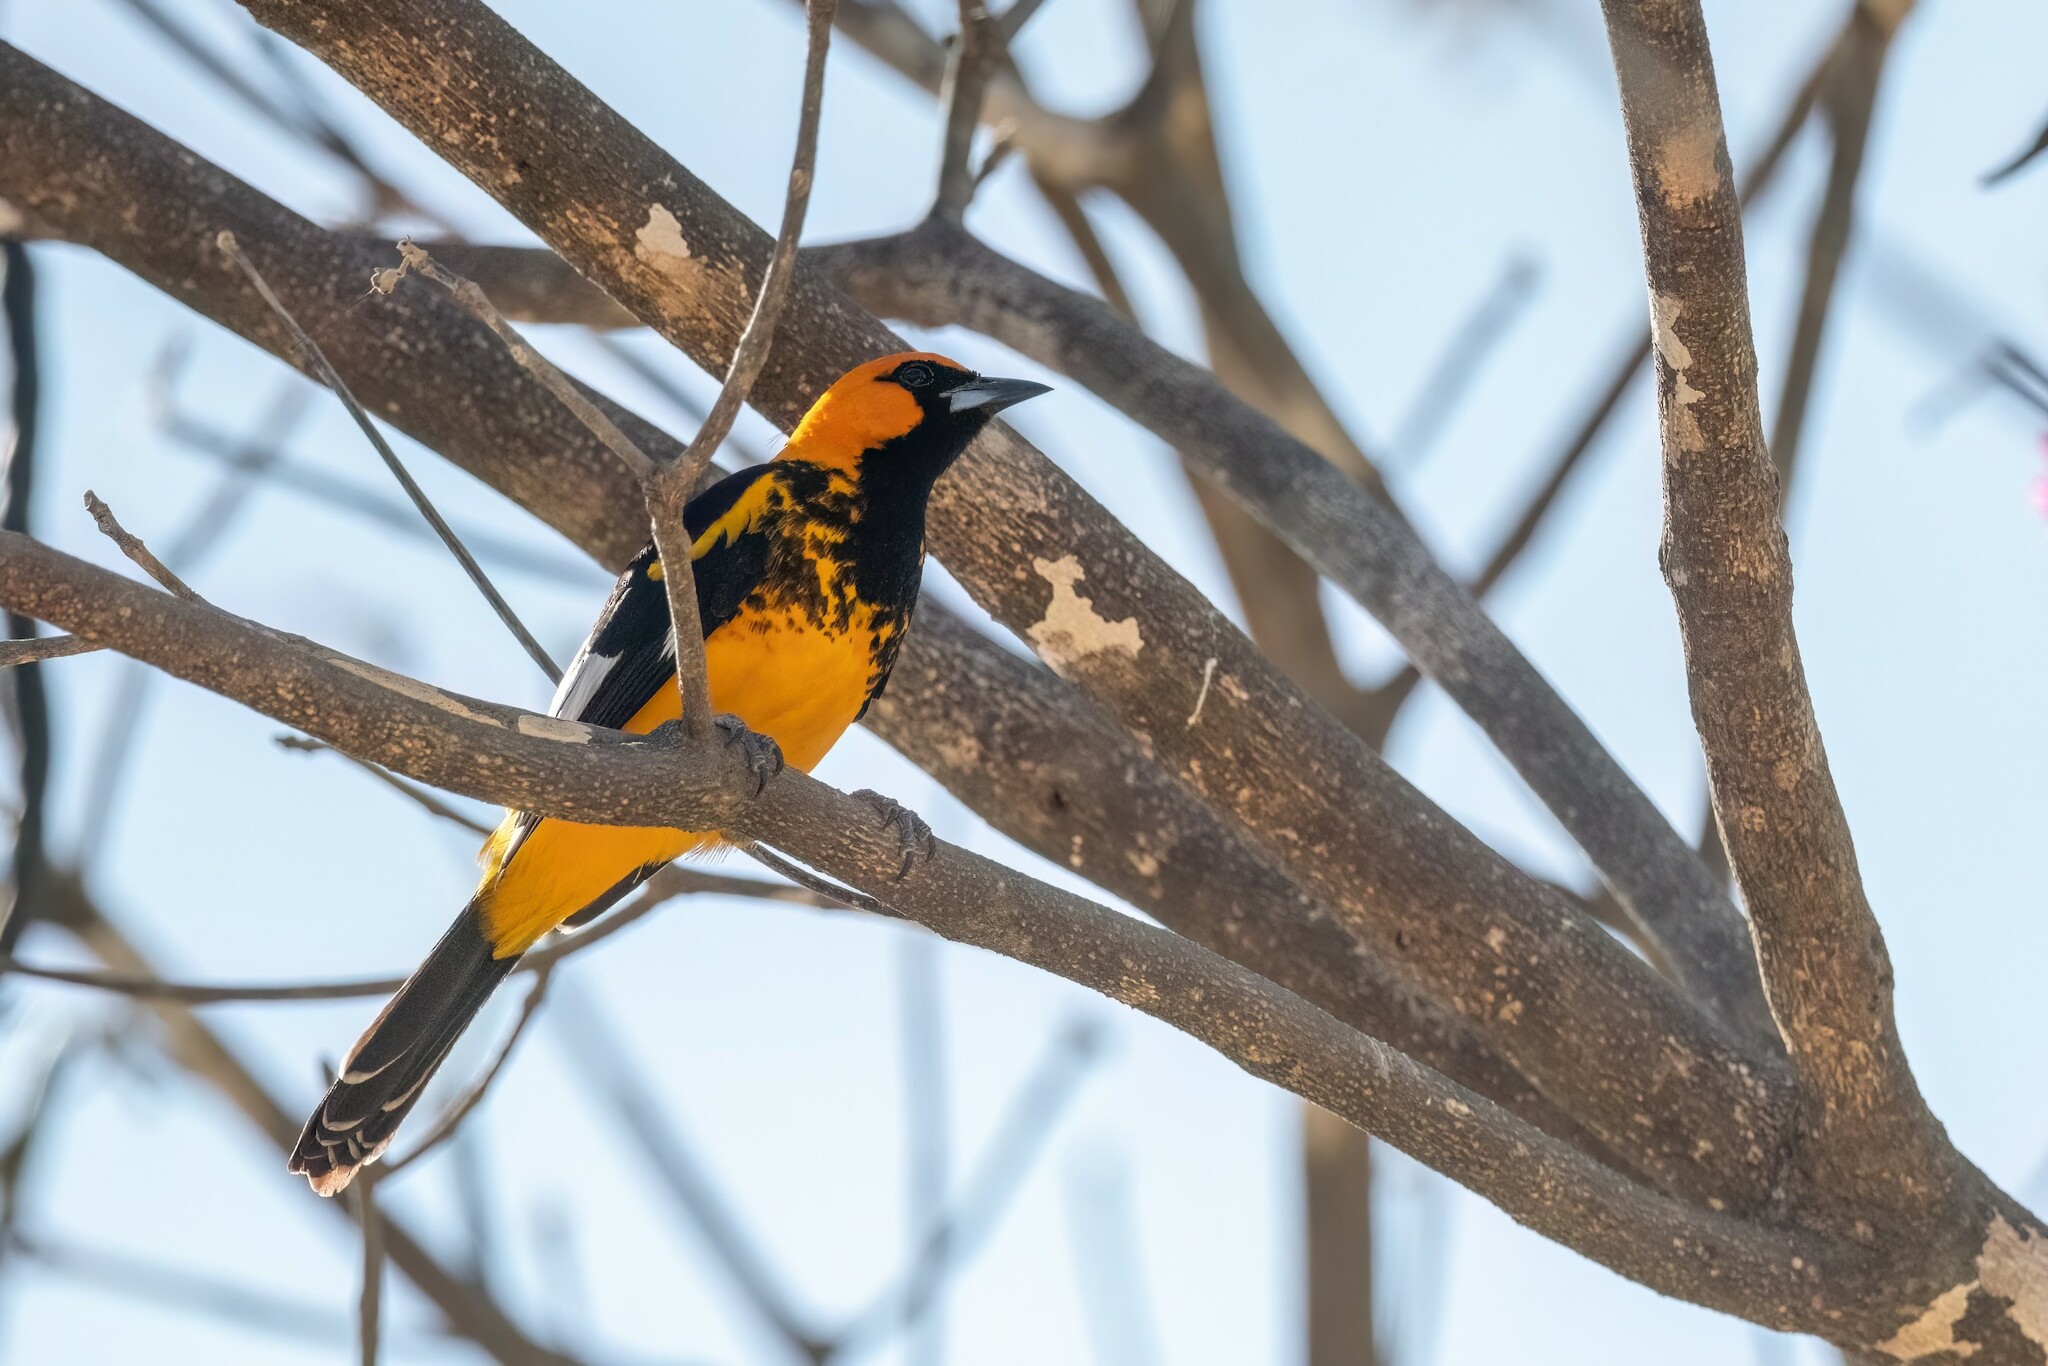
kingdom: Animalia
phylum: Chordata
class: Aves
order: Passeriformes
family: Icteridae
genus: Icterus
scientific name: Icterus pectoralis
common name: Spot-breasted oriole
